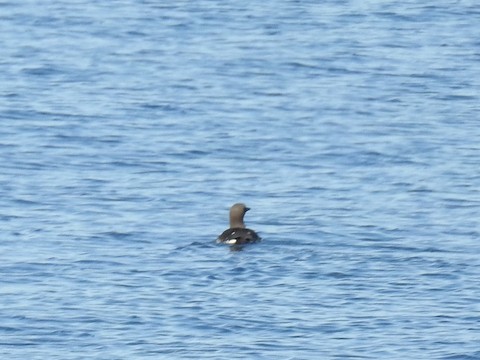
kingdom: Animalia
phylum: Chordata
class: Aves
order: Charadriiformes
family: Alcidae
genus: Uria
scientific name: Uria aalge
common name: Common murre
